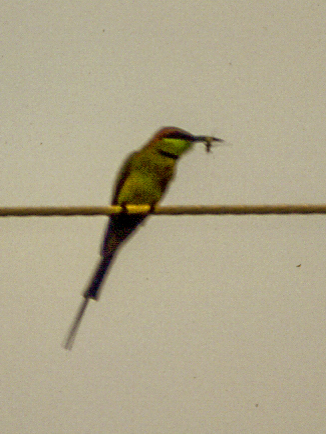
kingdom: Animalia
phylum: Chordata
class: Aves
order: Coraciiformes
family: Meropidae
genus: Merops
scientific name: Merops orientalis
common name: Green bee-eater
